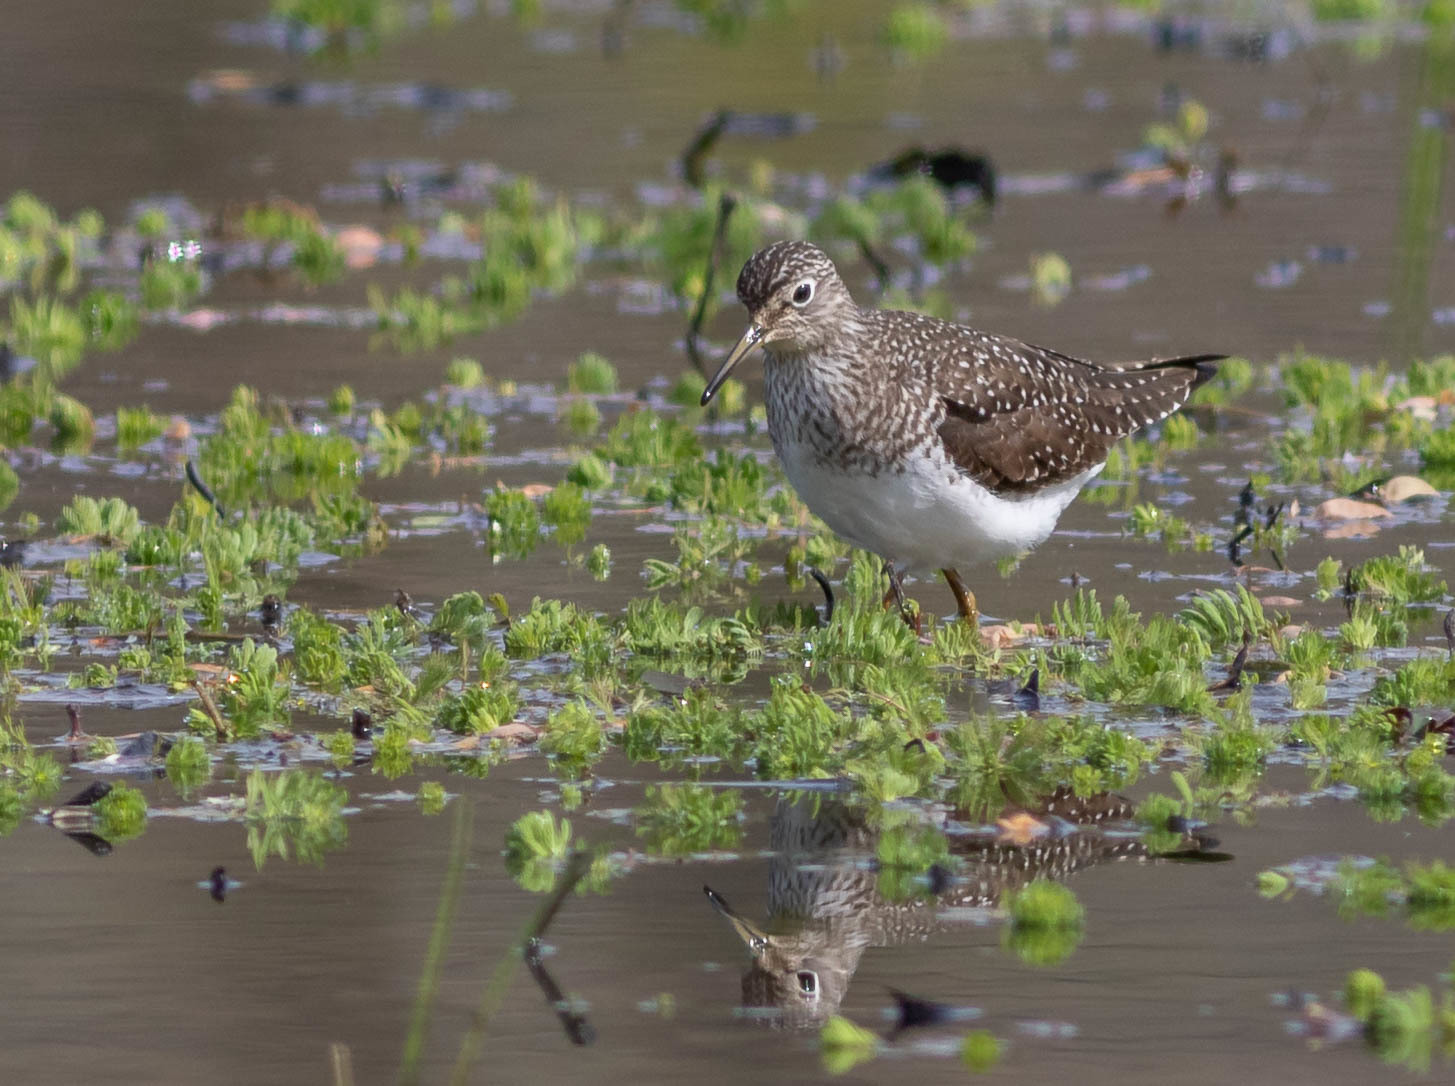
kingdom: Animalia
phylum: Chordata
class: Aves
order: Charadriiformes
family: Scolopacidae
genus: Tringa
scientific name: Tringa solitaria
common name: Solitary sandpiper
